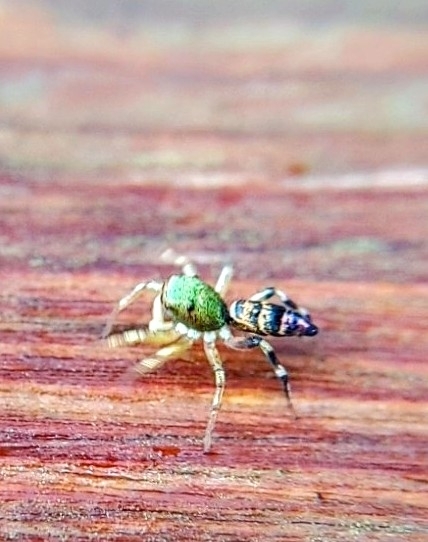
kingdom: Animalia
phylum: Arthropoda
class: Arachnida
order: Araneae
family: Salticidae
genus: Cosmophasis
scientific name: Cosmophasis thalassina
